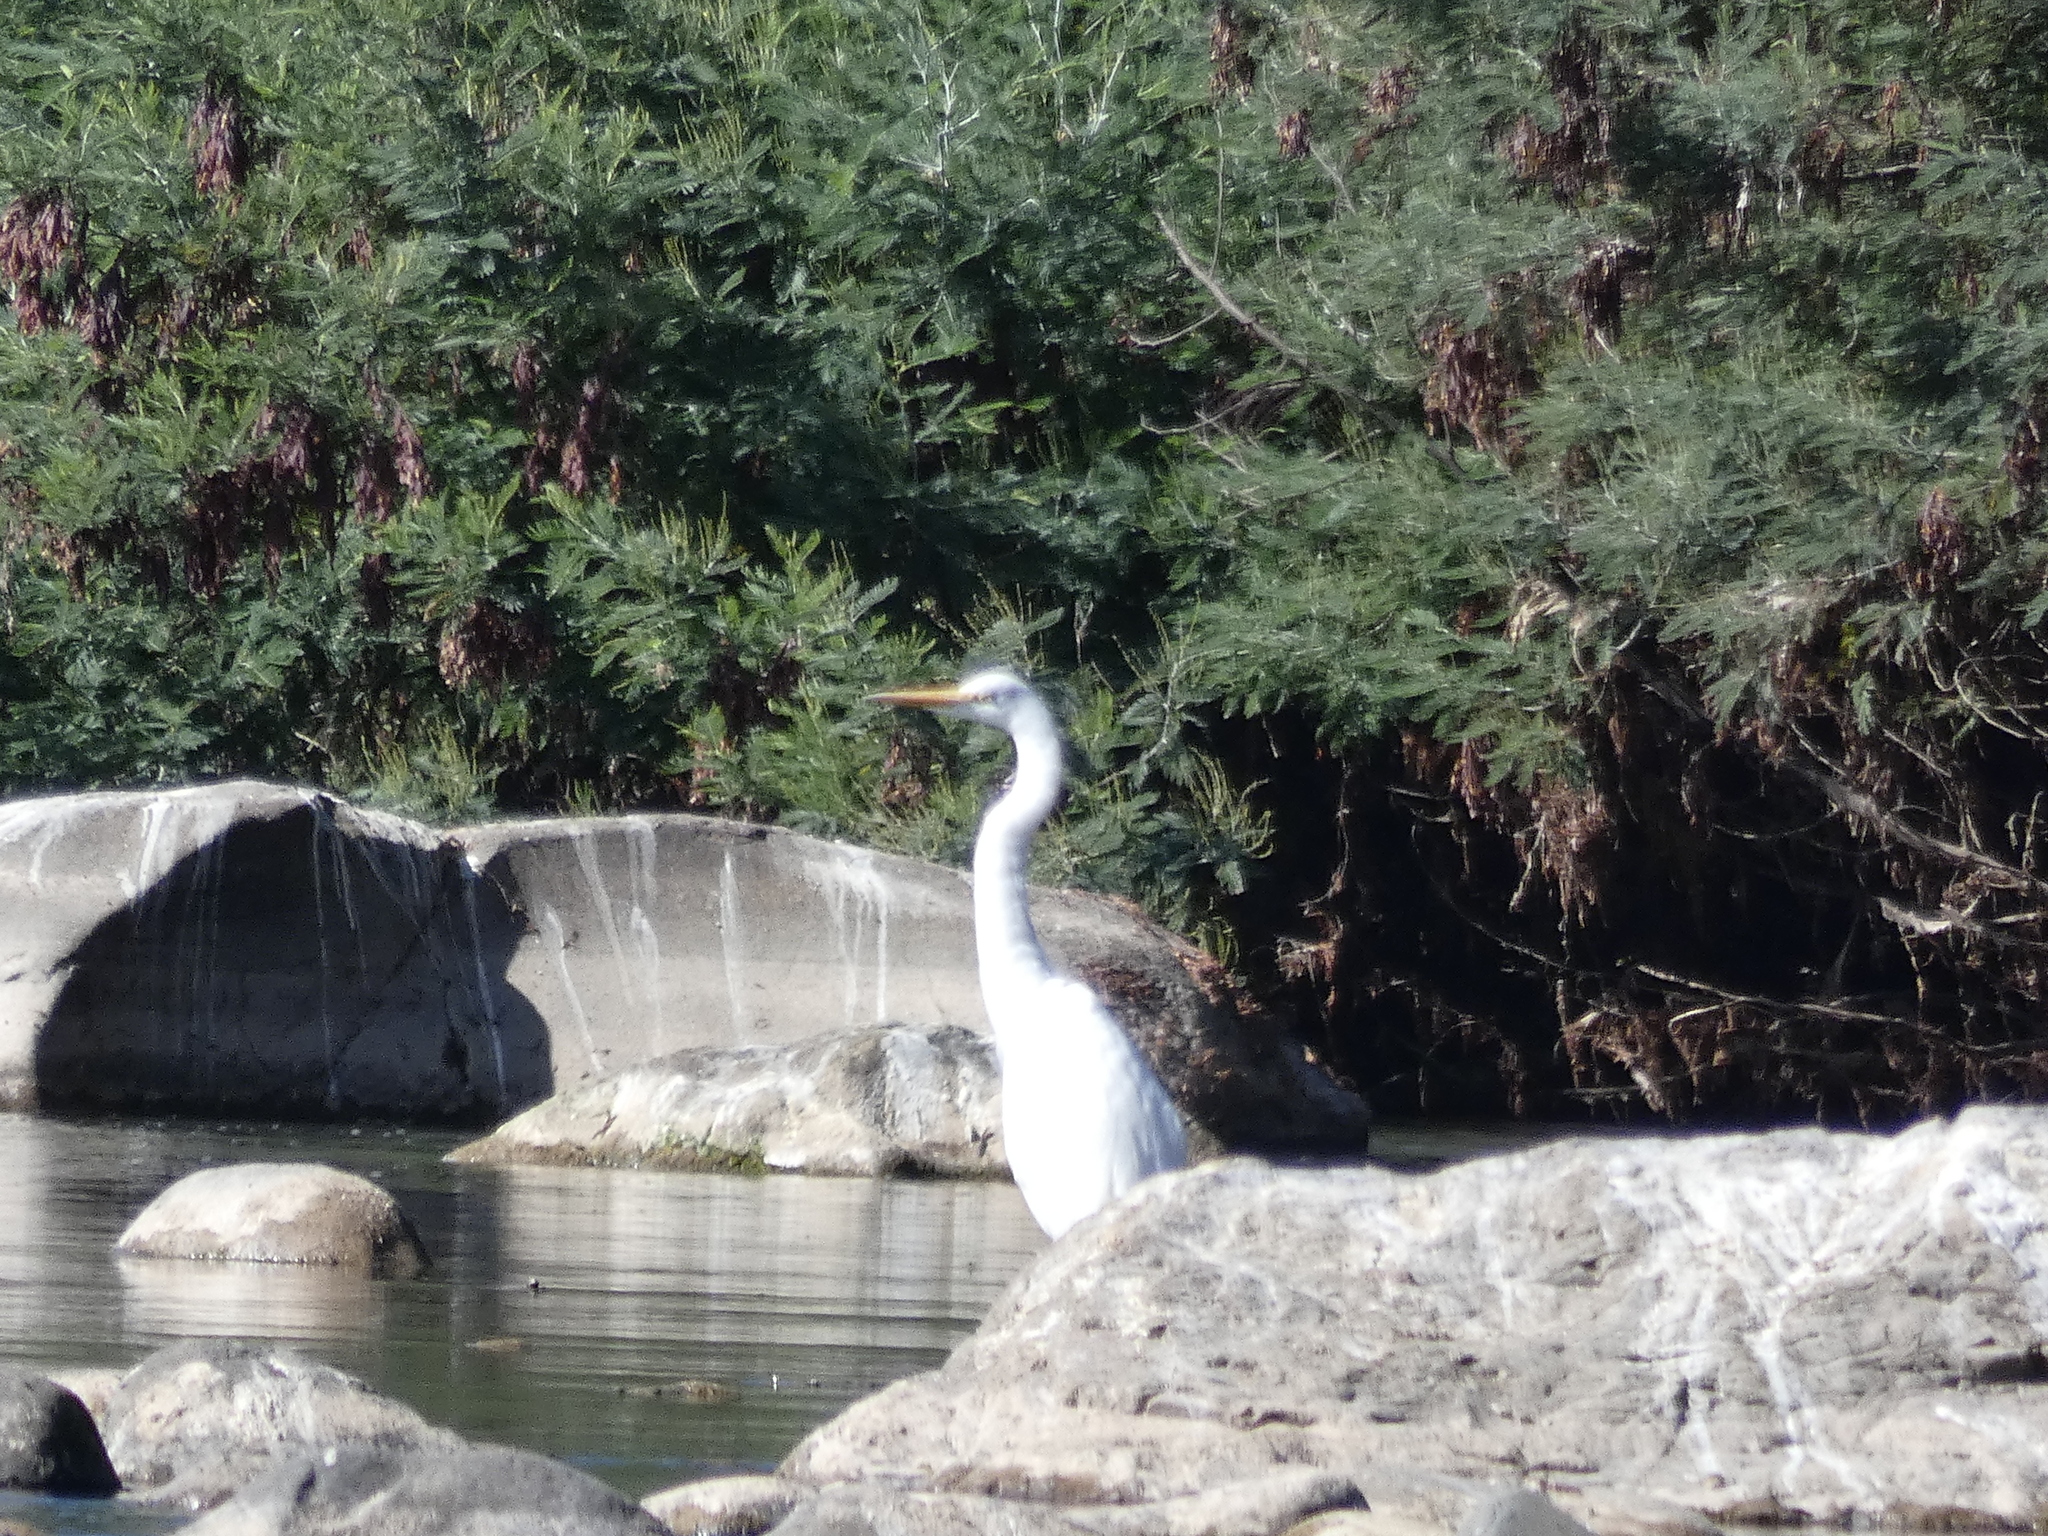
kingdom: Animalia
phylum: Chordata
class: Aves
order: Pelecaniformes
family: Ardeidae
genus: Ardea
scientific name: Ardea alba
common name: Great egret
